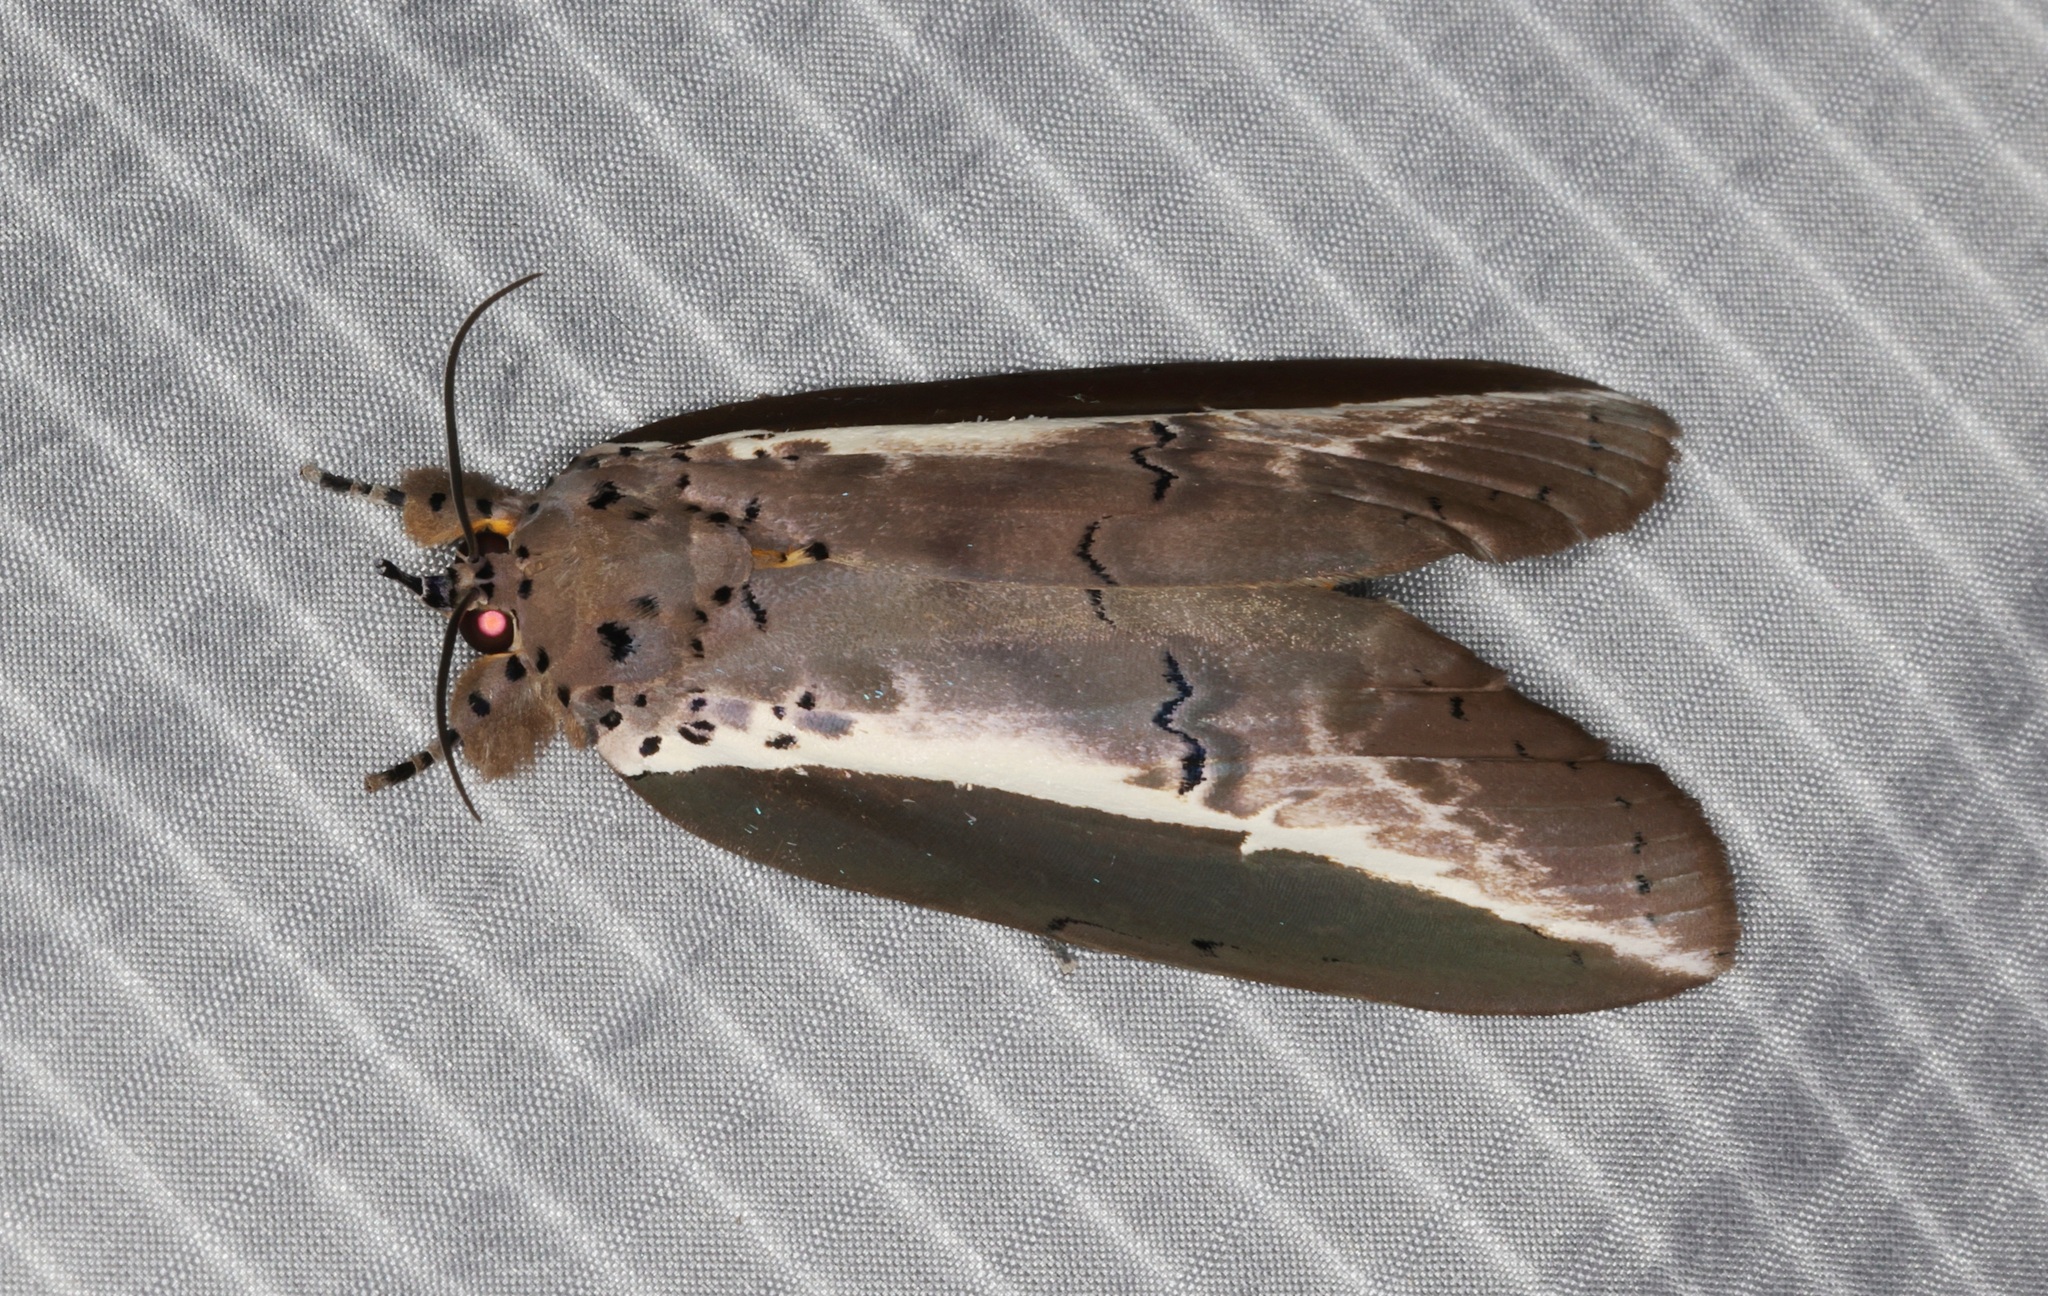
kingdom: Animalia
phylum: Arthropoda
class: Insecta
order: Lepidoptera
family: Nolidae
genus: Eligma
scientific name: Eligma narcissus
